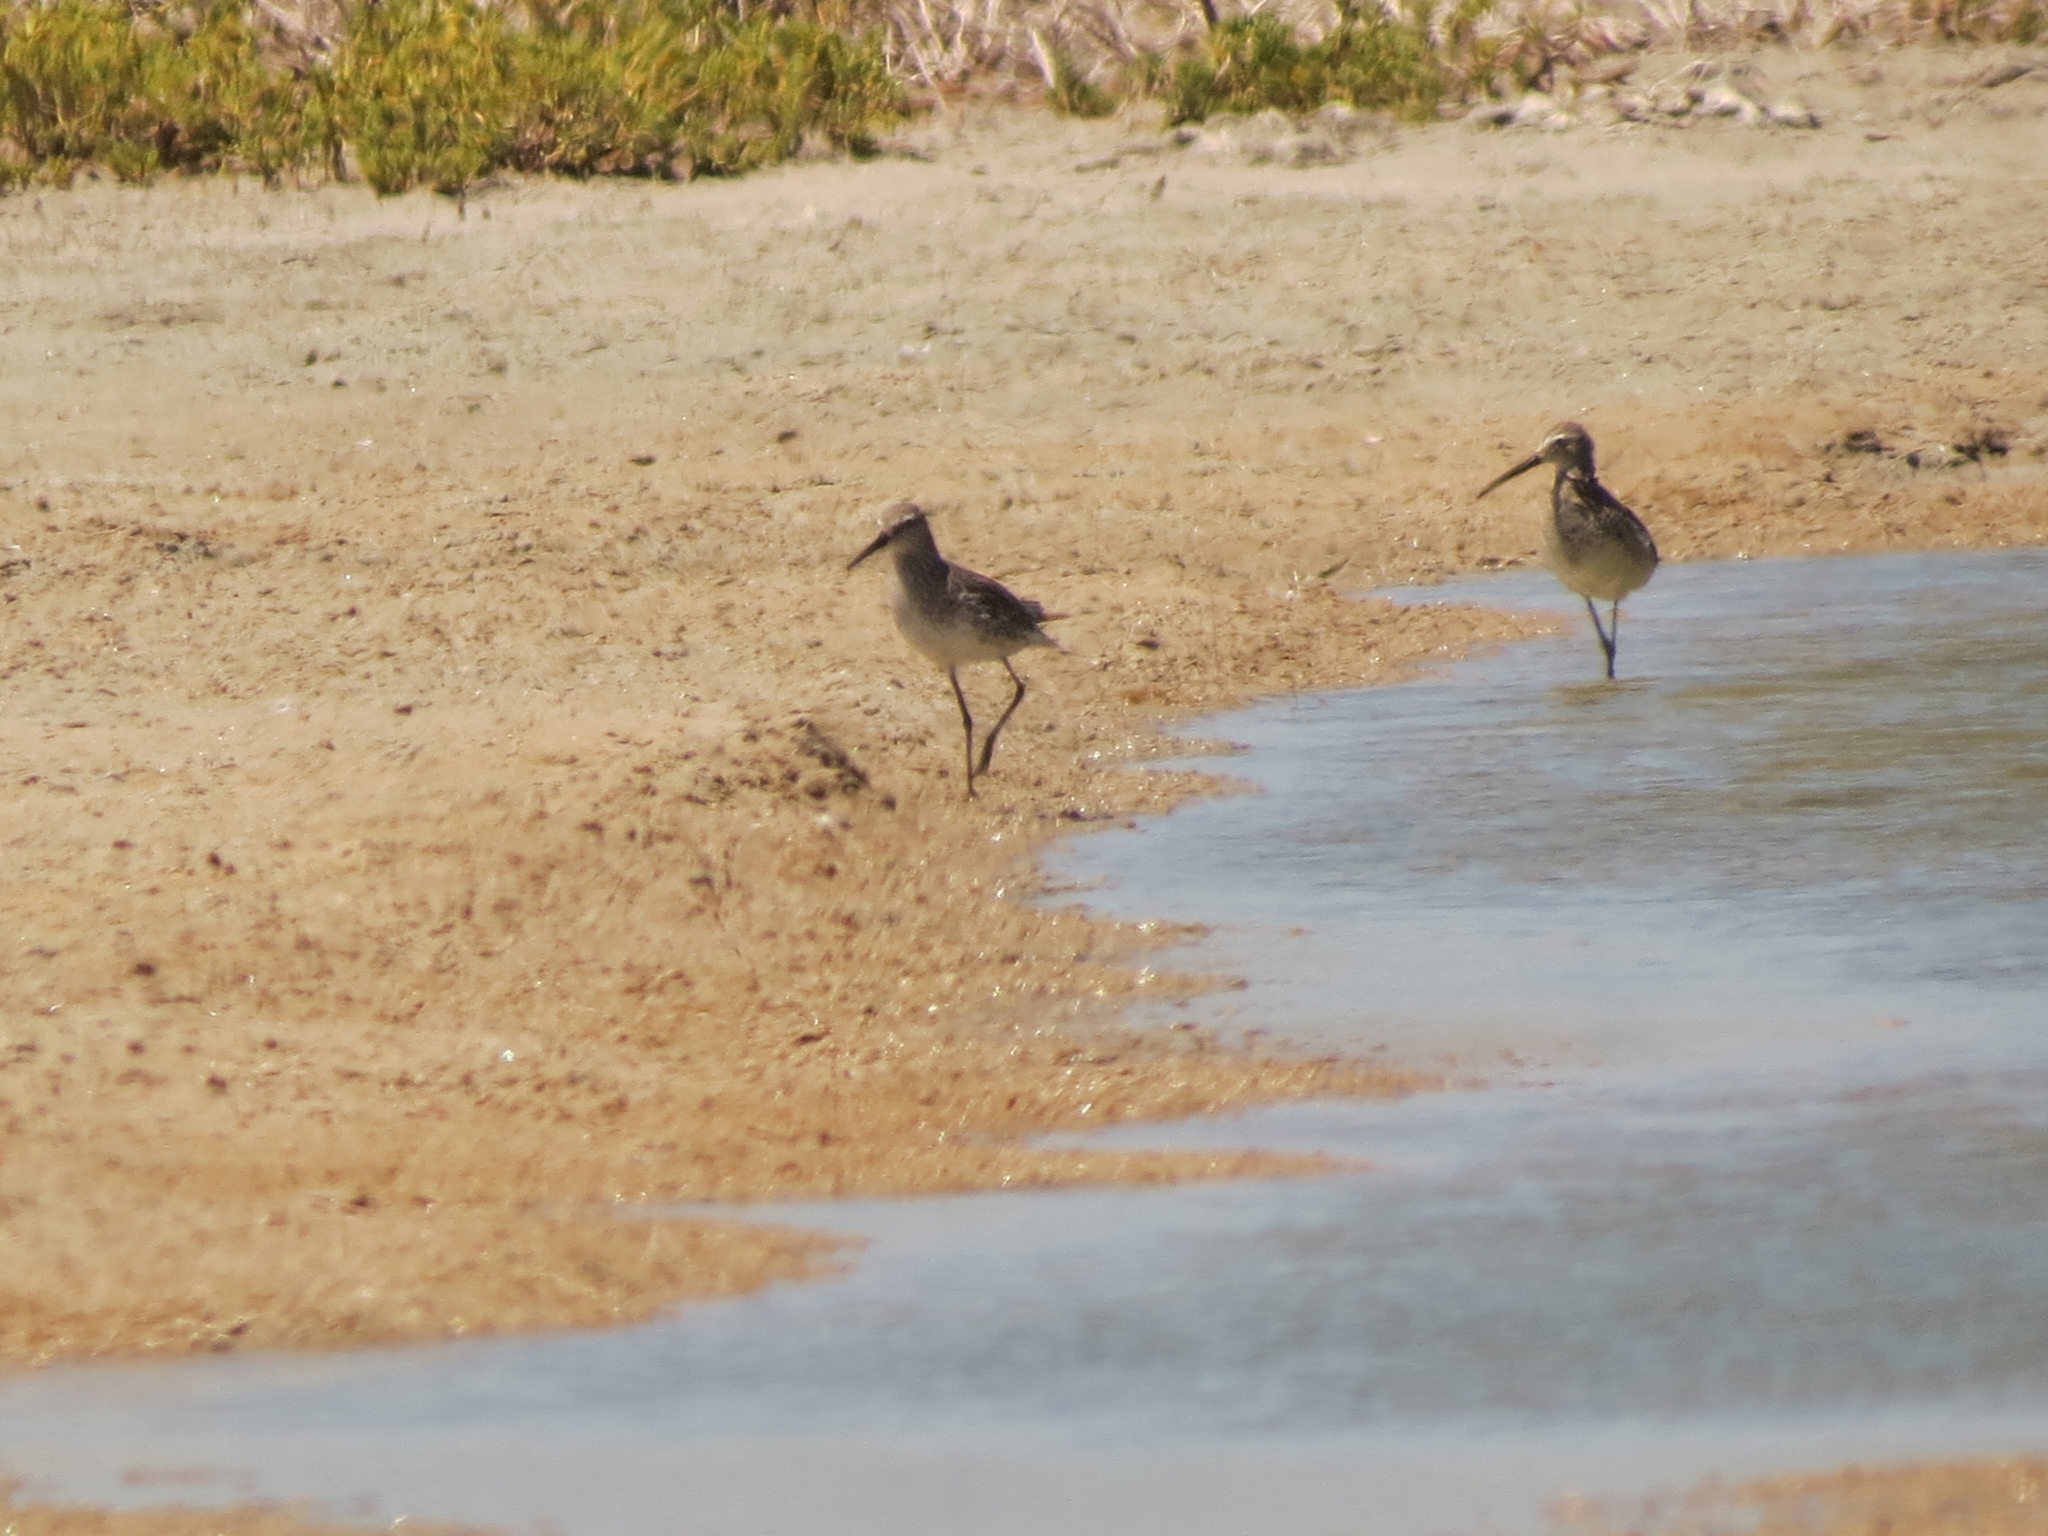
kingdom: Animalia
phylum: Chordata
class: Aves
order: Charadriiformes
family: Scolopacidae
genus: Calidris
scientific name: Calidris himantopus
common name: Stilt sandpiper
